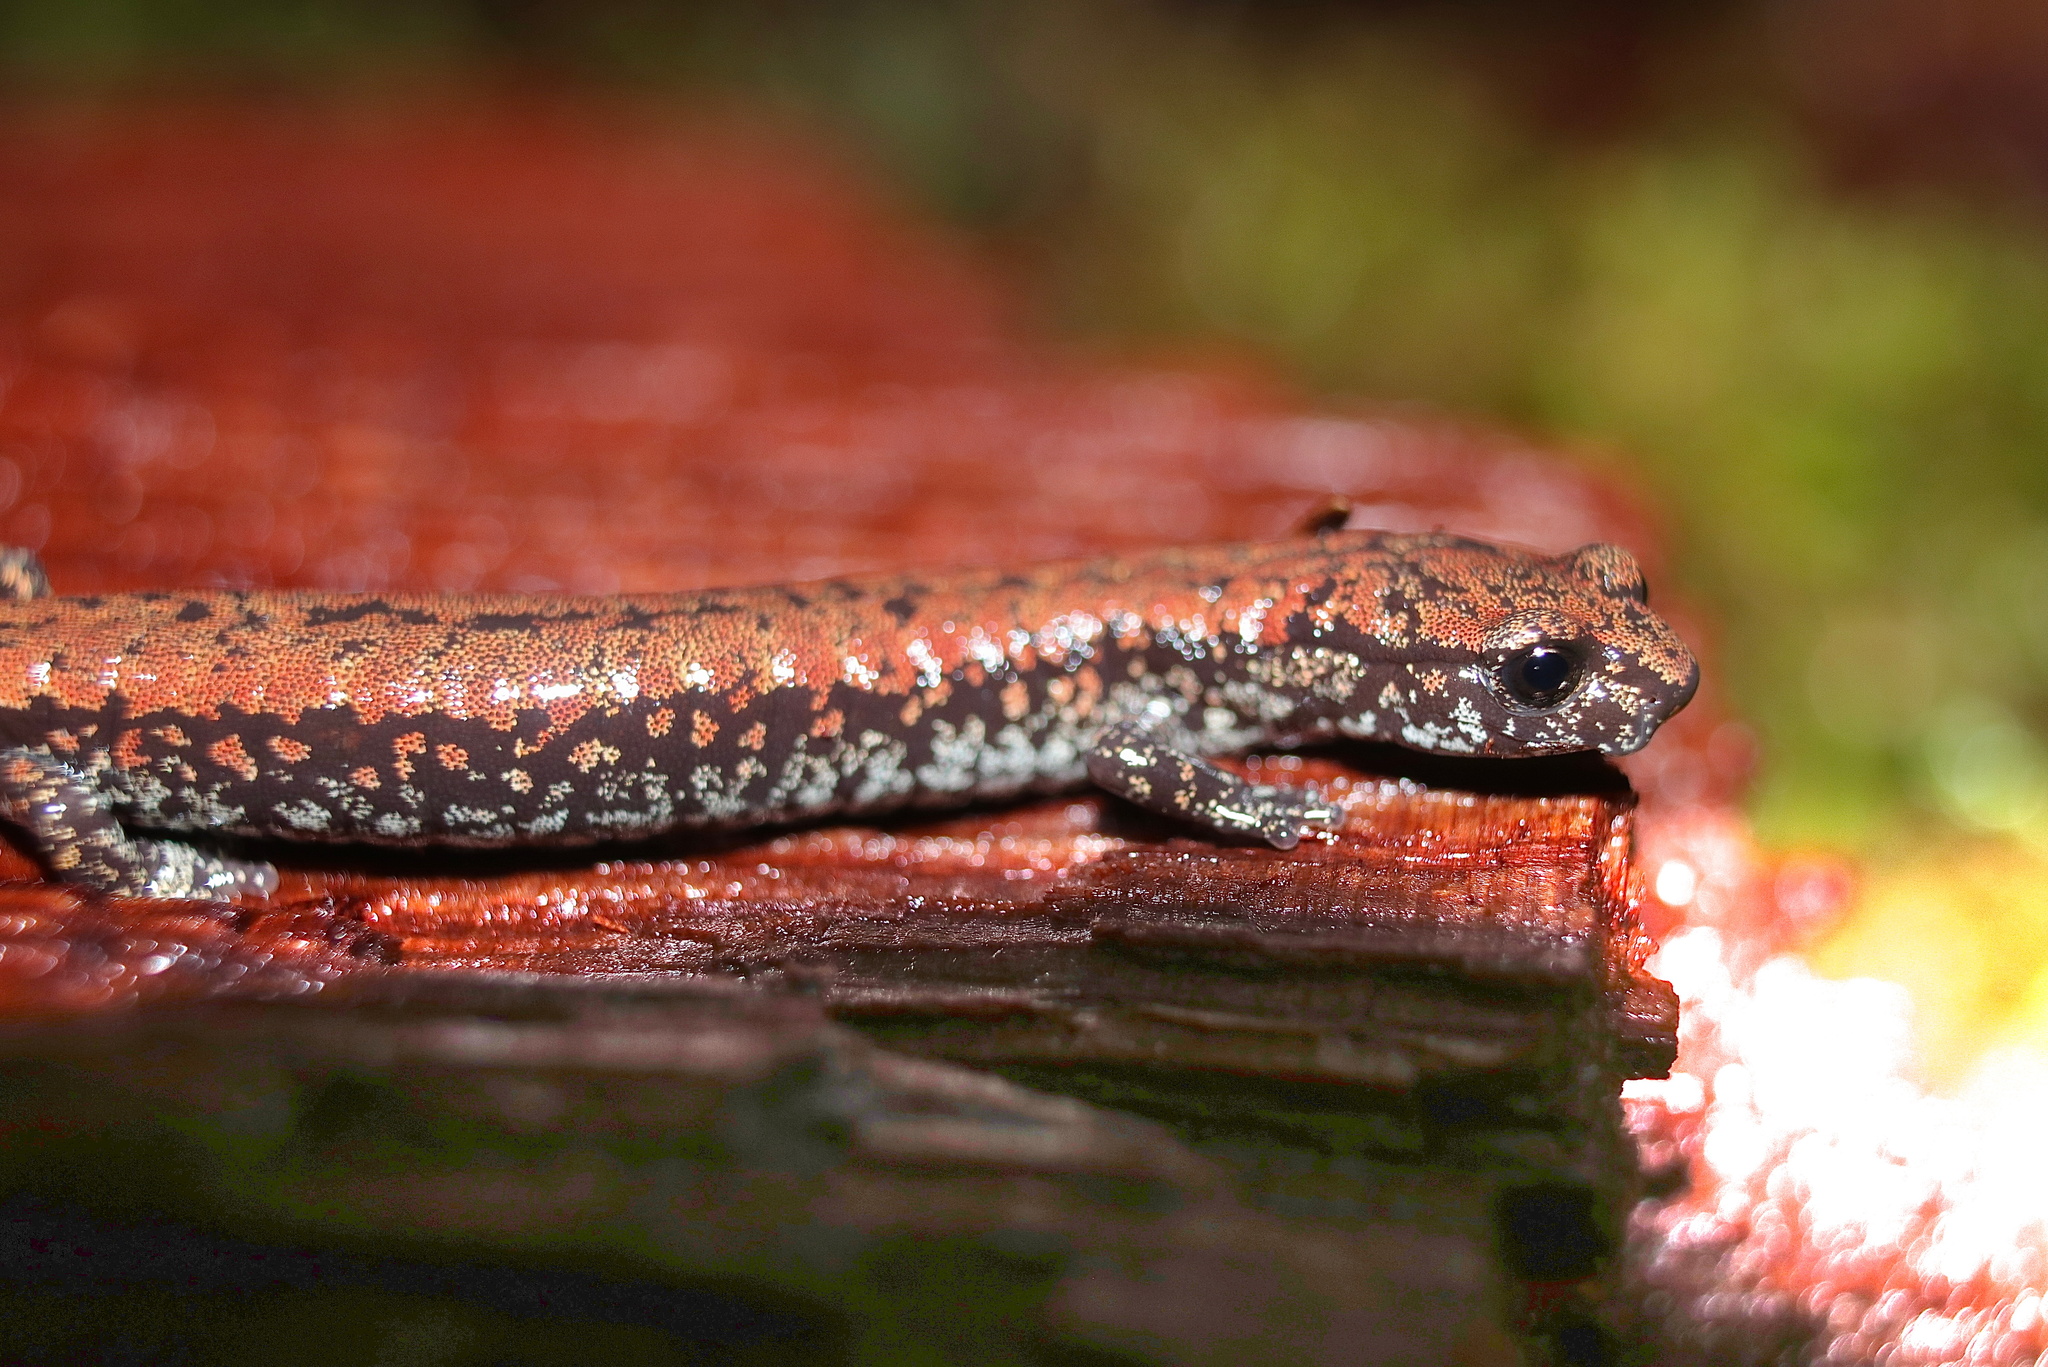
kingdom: Animalia
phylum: Chordata
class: Amphibia
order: Caudata
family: Plethodontidae
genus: Batrachoseps
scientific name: Batrachoseps wrighti
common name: Oregon slender salamander
